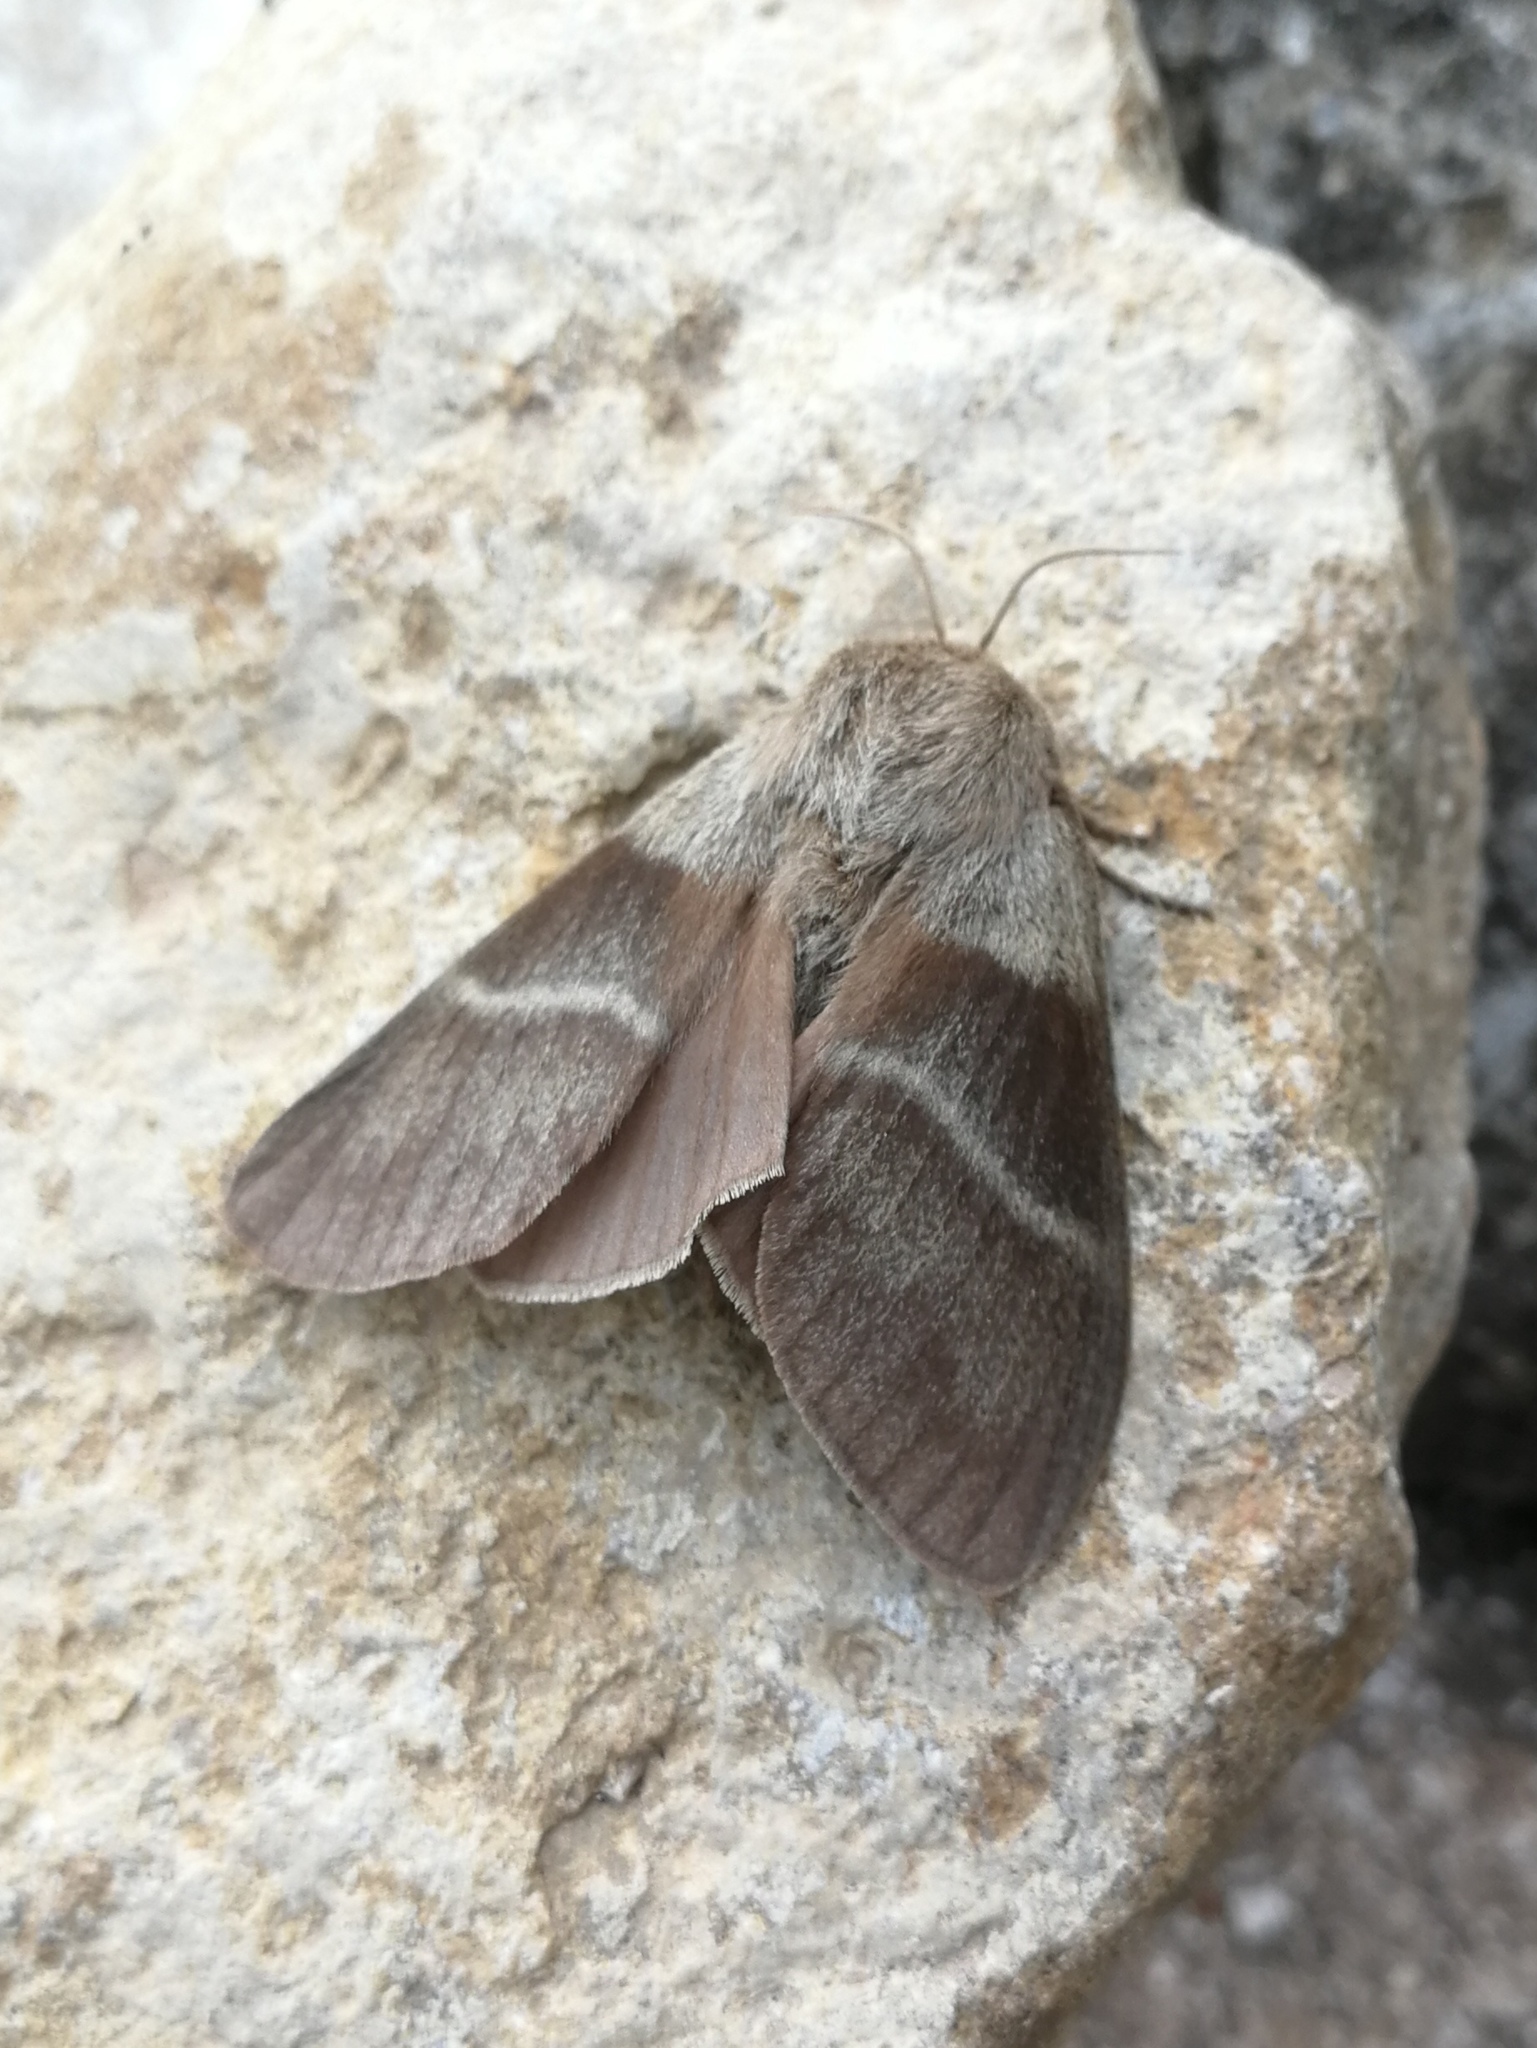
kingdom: Animalia
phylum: Arthropoda
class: Insecta
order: Lepidoptera
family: Lasiocampidae
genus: Macrothylacia
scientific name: Macrothylacia rubi
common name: Fox moth
